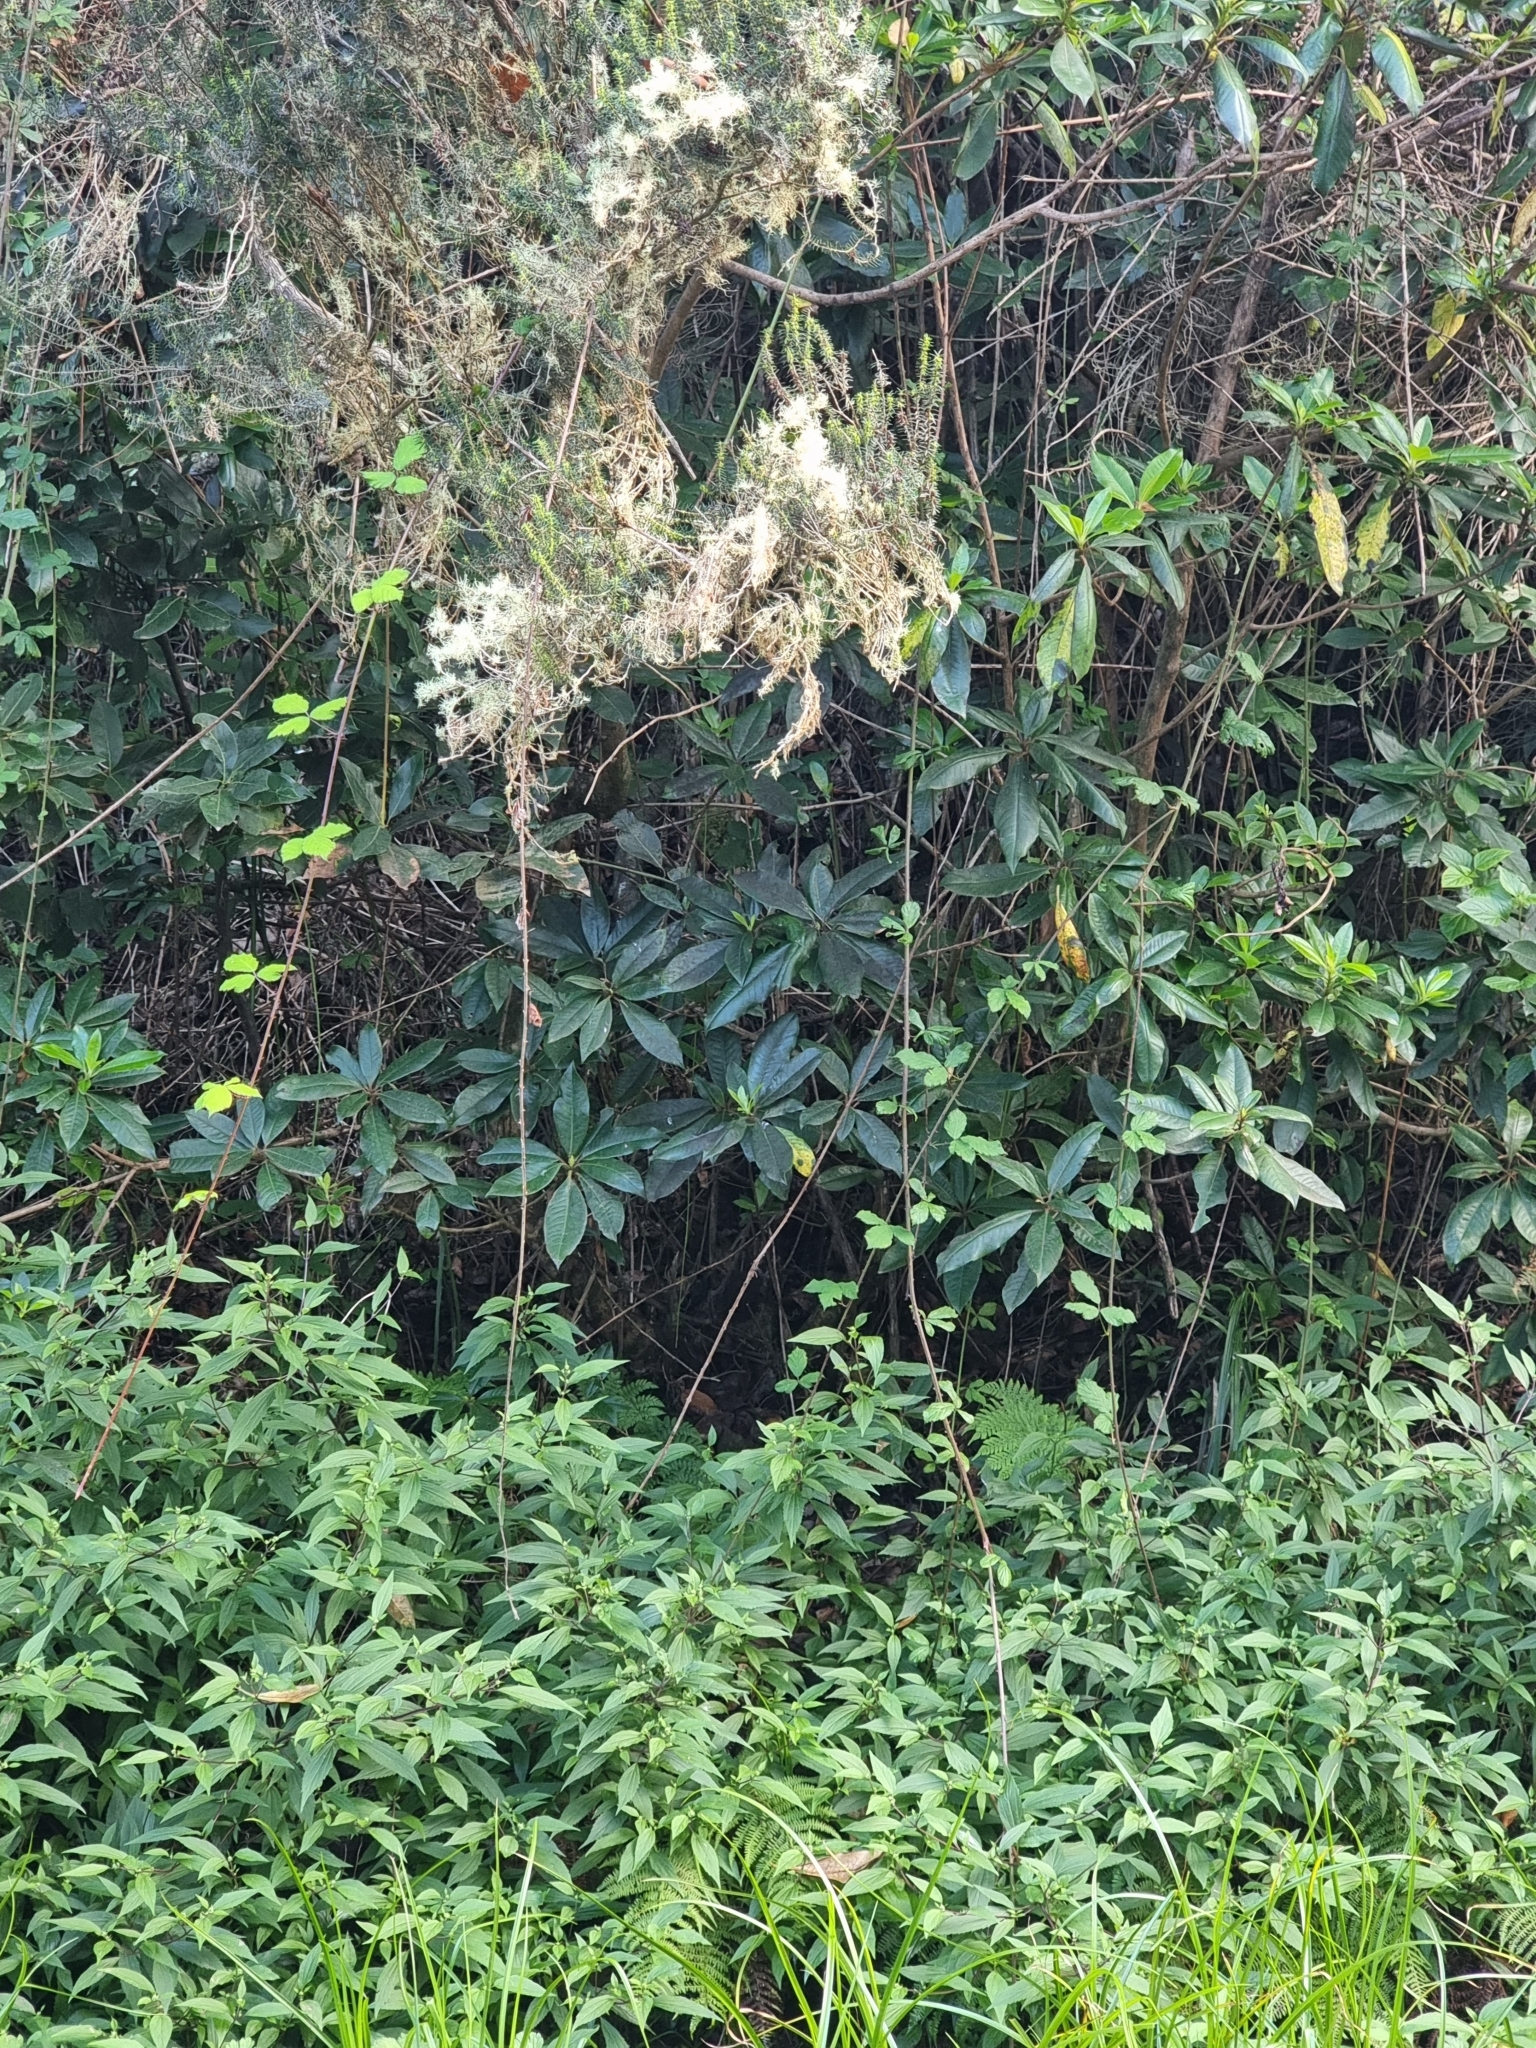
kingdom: Plantae
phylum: Tracheophyta
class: Magnoliopsida
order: Ericales
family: Clethraceae
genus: Clethra
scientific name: Clethra arborea
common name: Lily-of-the-valley-tree
